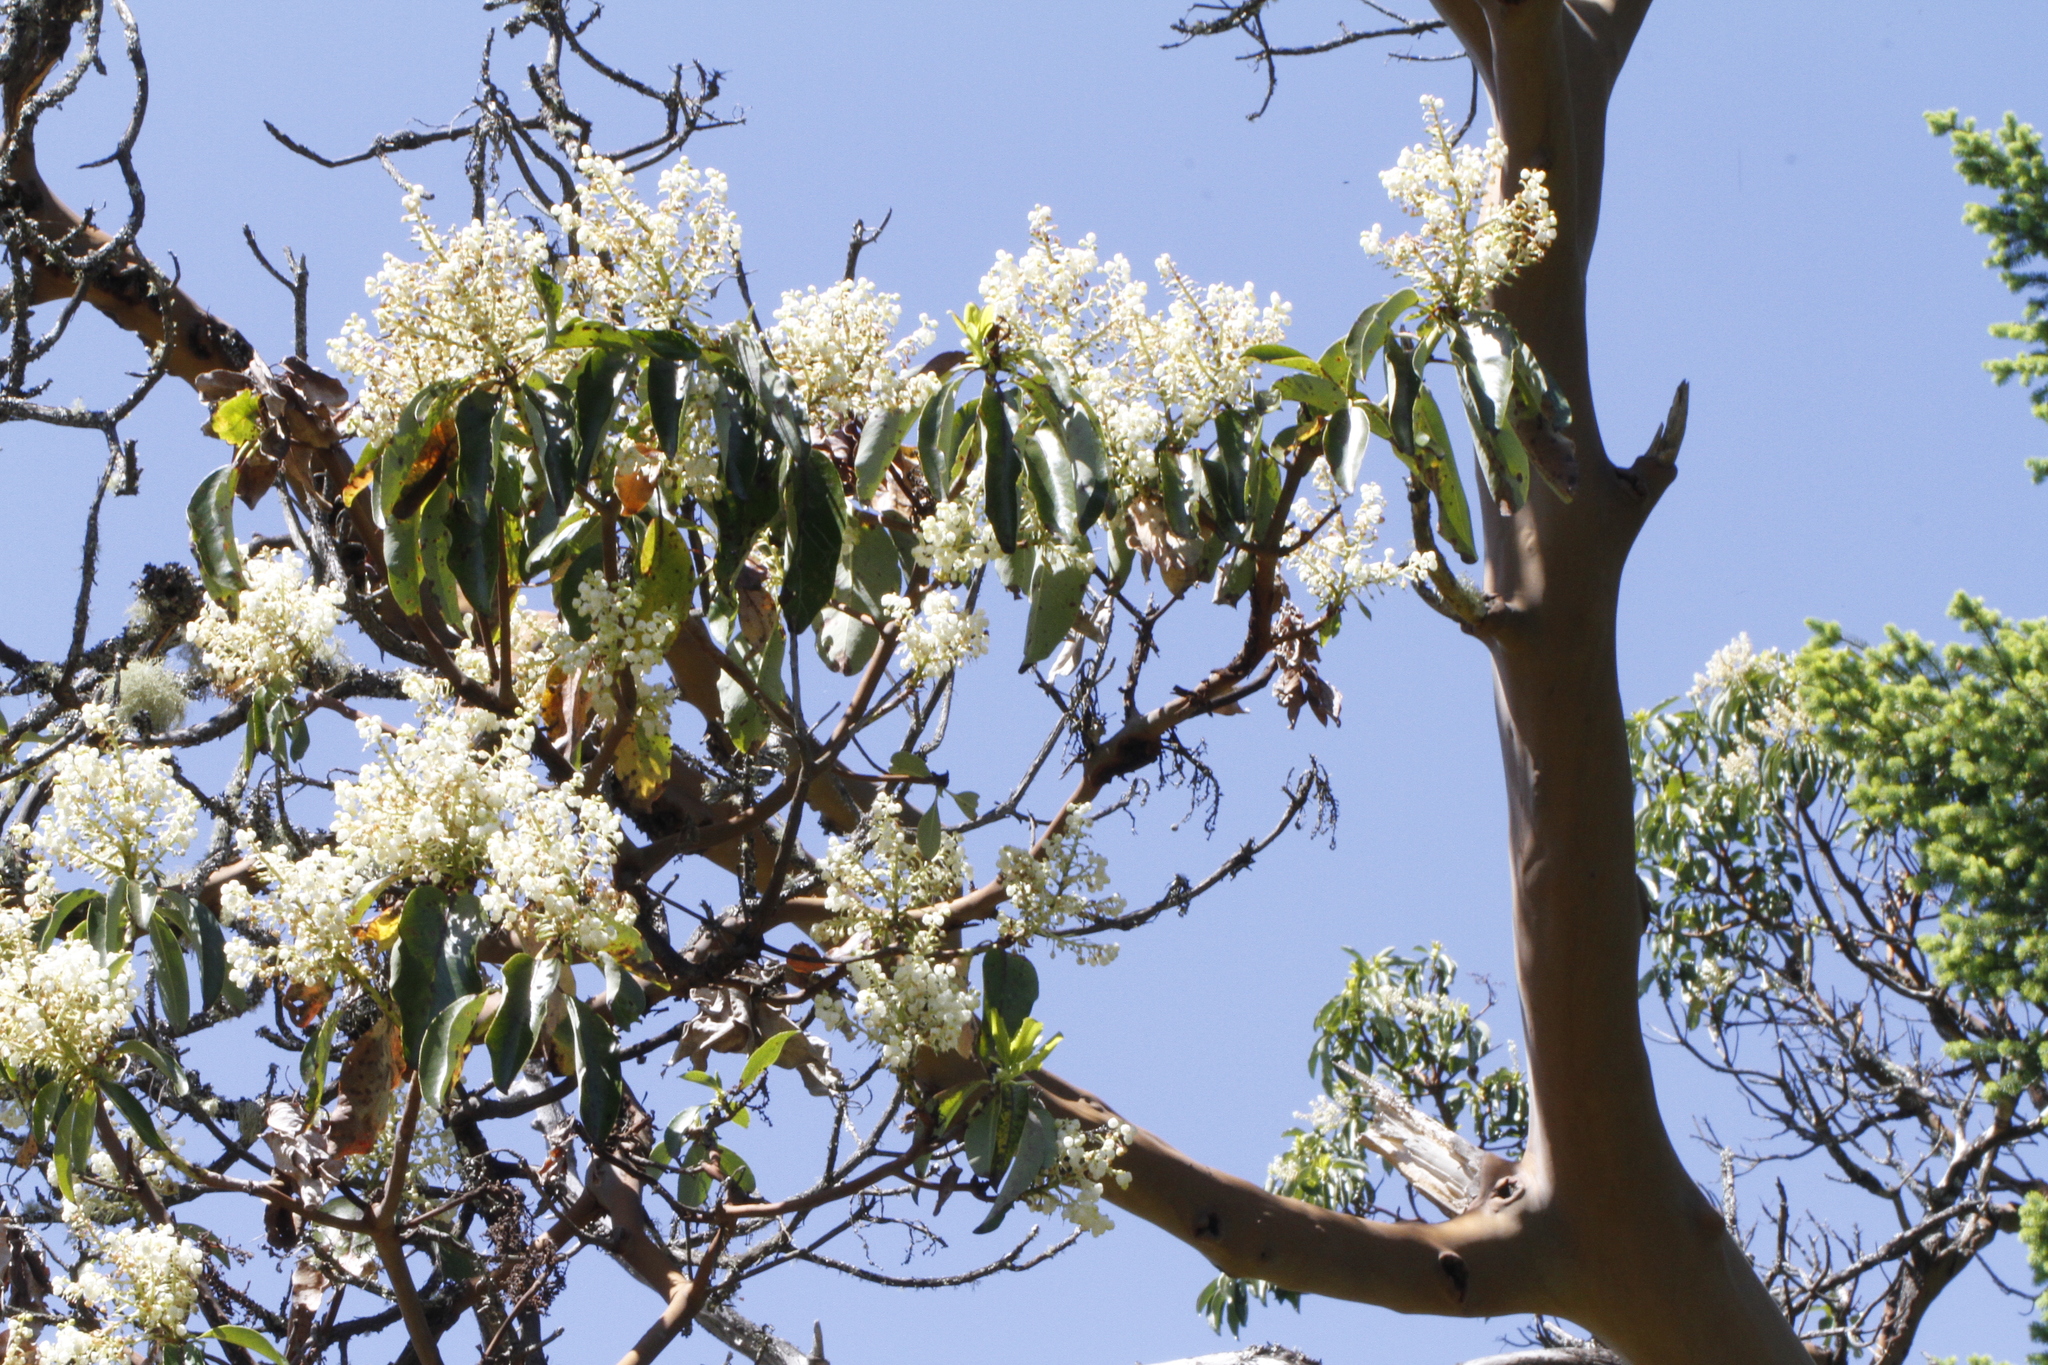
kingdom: Plantae
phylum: Tracheophyta
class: Magnoliopsida
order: Ericales
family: Ericaceae
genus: Arbutus
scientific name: Arbutus menziesii
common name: Pacific madrone
